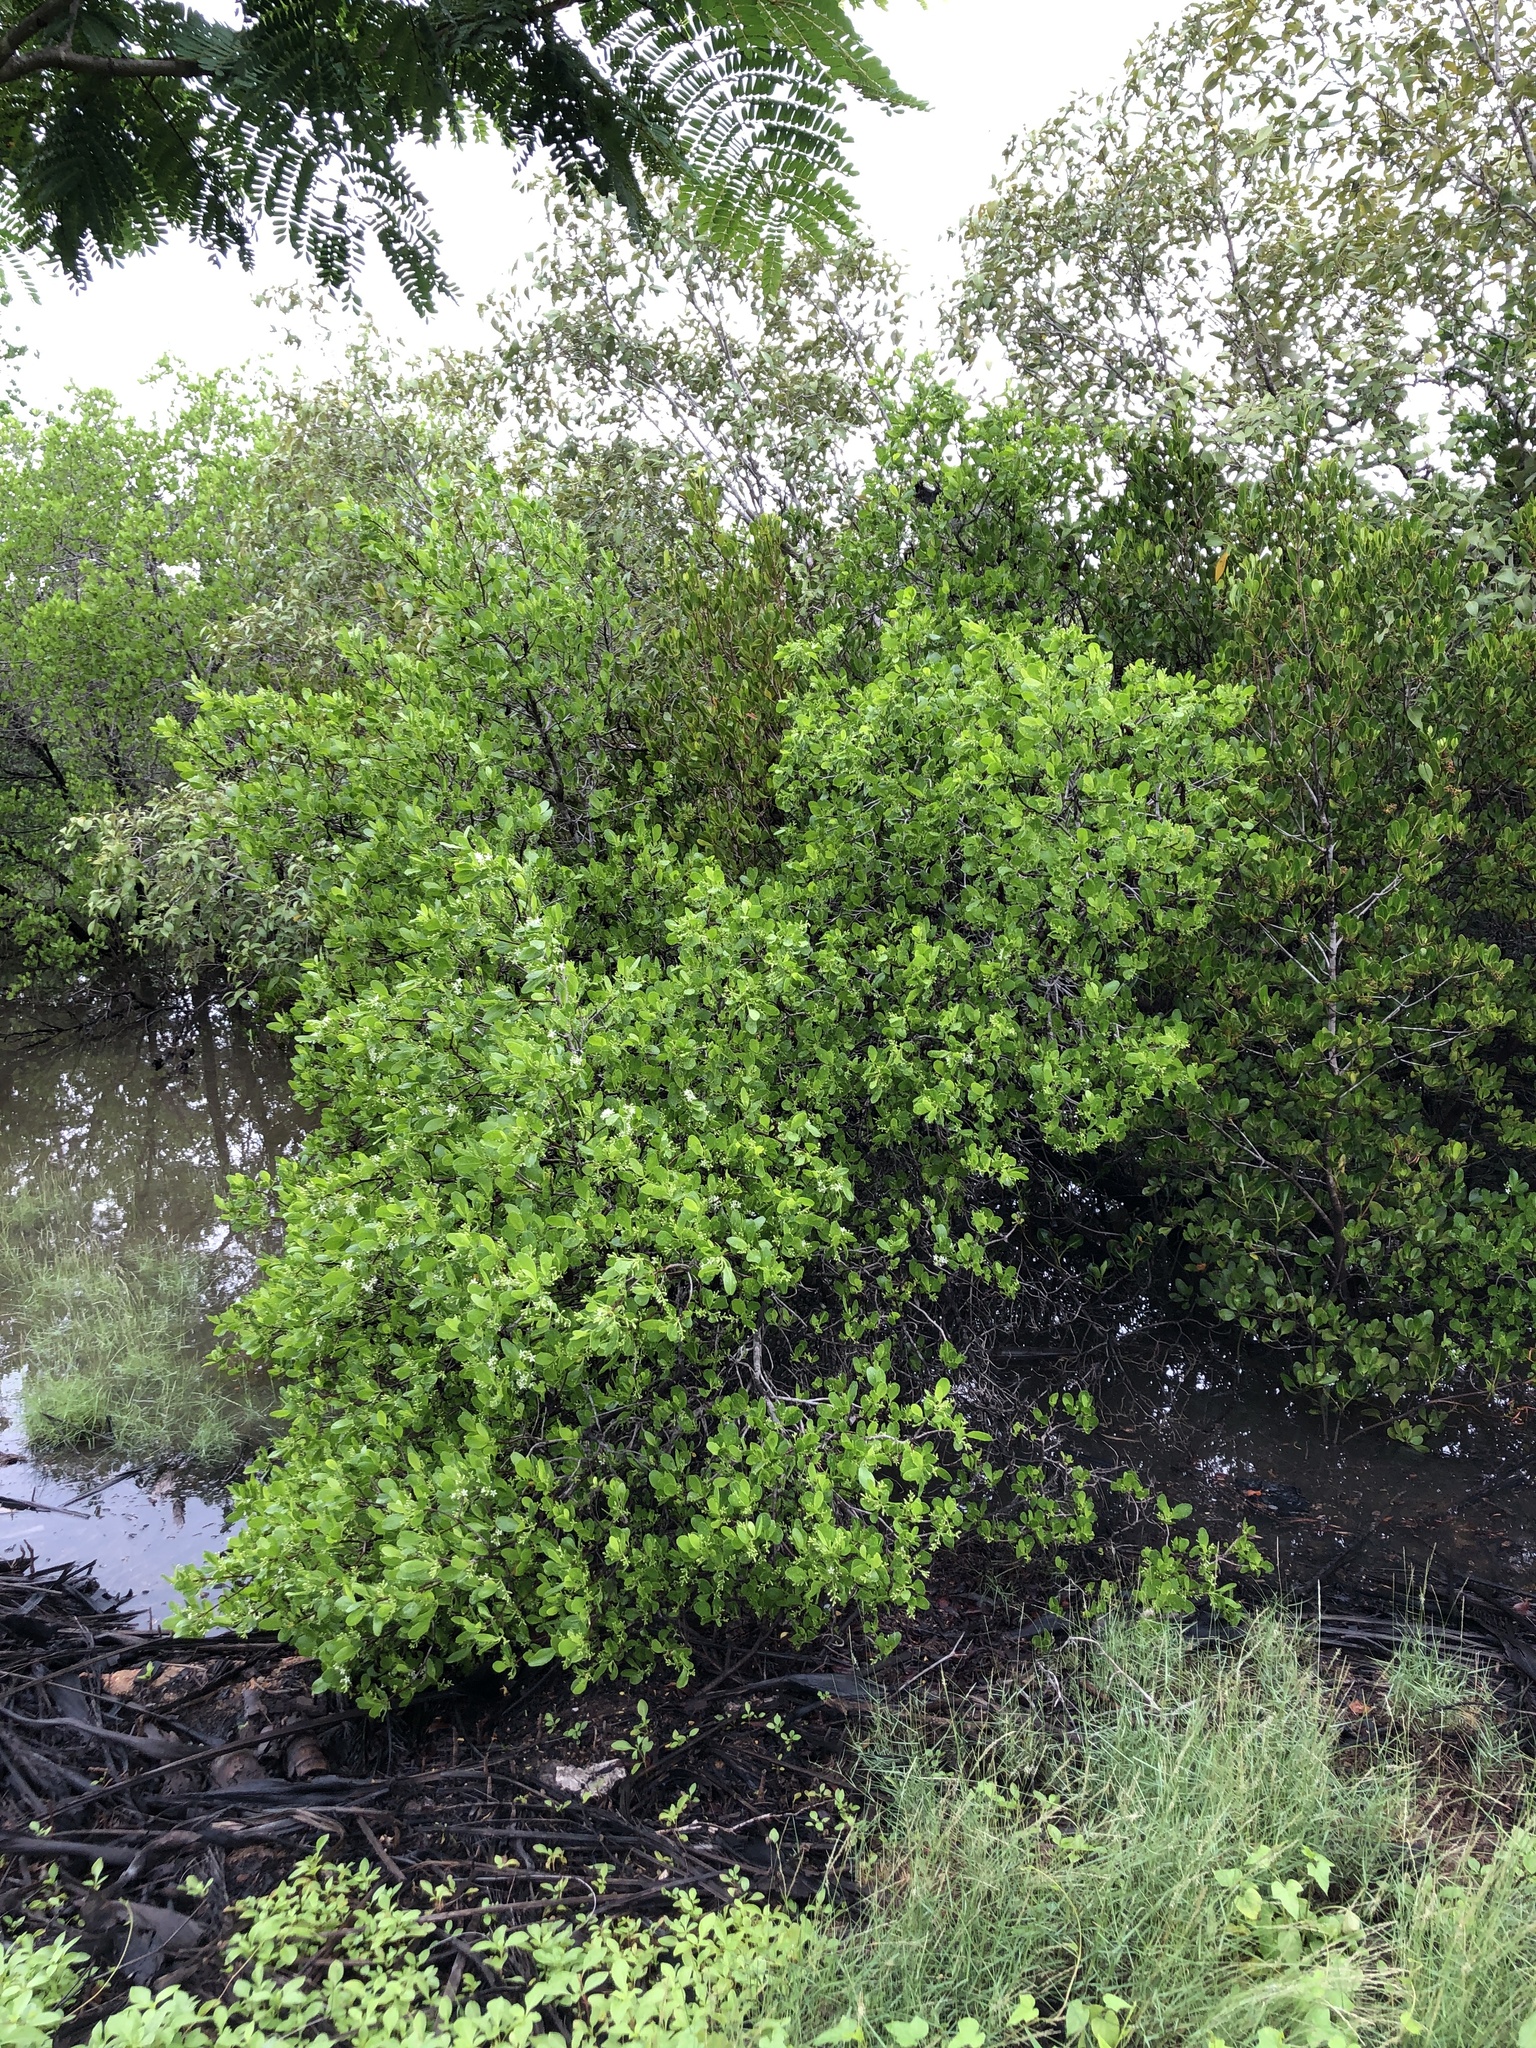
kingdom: Plantae
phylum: Tracheophyta
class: Magnoliopsida
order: Myrtales
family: Combretaceae
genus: Lumnitzera
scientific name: Lumnitzera racemosa
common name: White-flowered black mangrove
